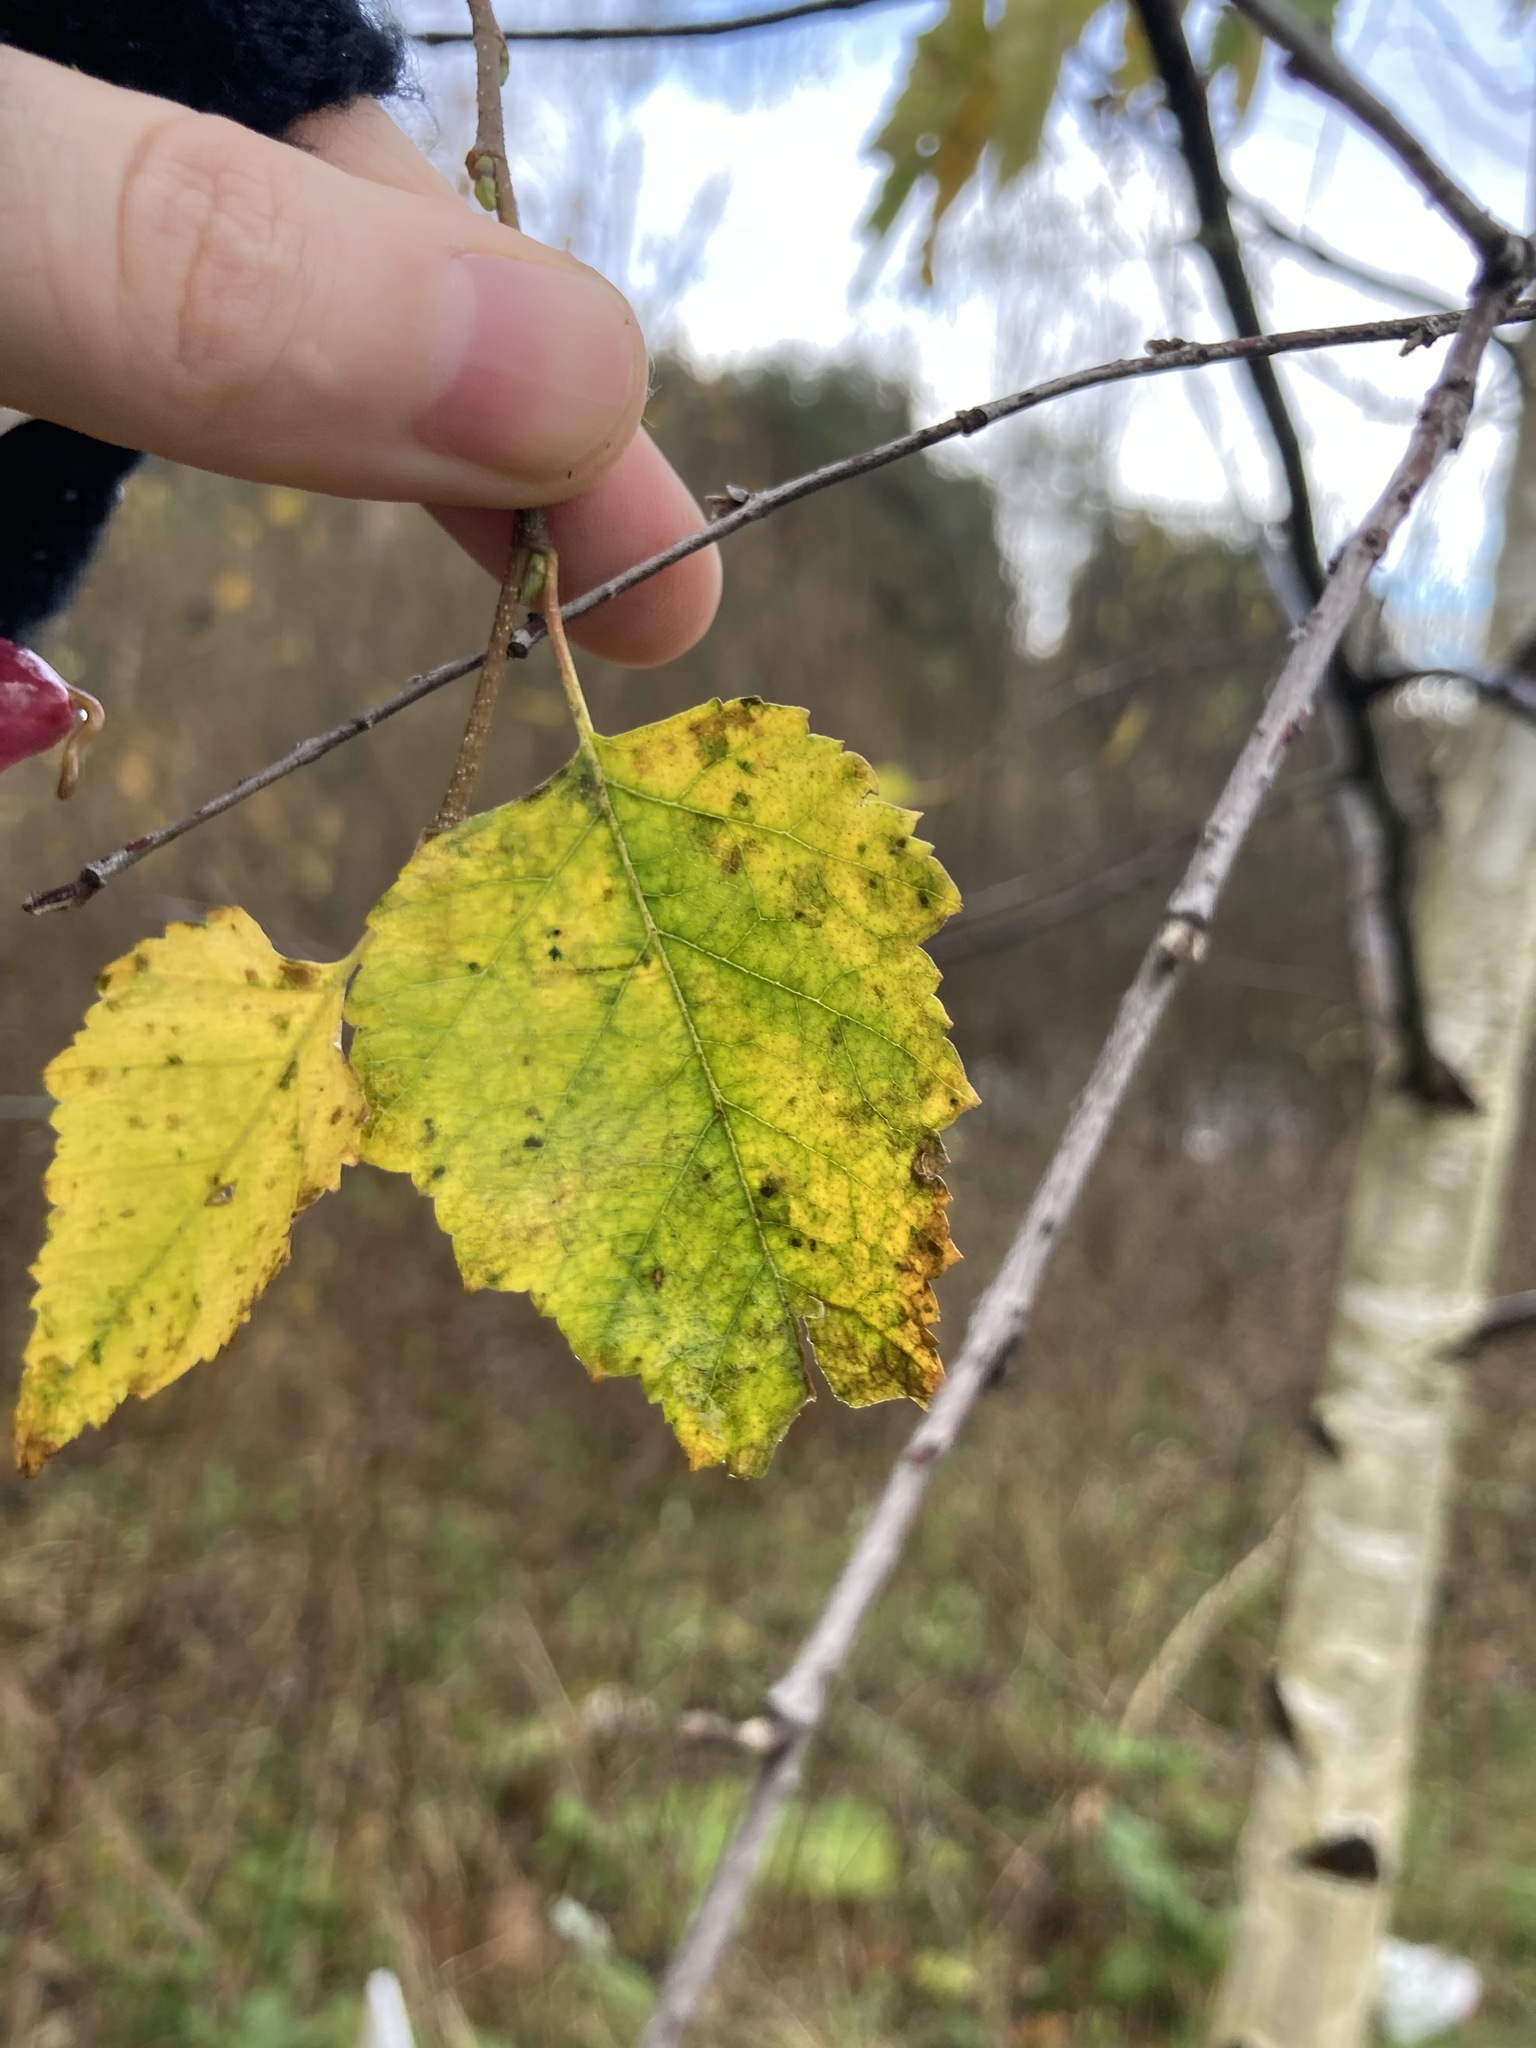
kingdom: Plantae
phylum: Tracheophyta
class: Magnoliopsida
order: Fagales
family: Betulaceae
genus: Betula
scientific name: Betula pendula
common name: Silver birch
